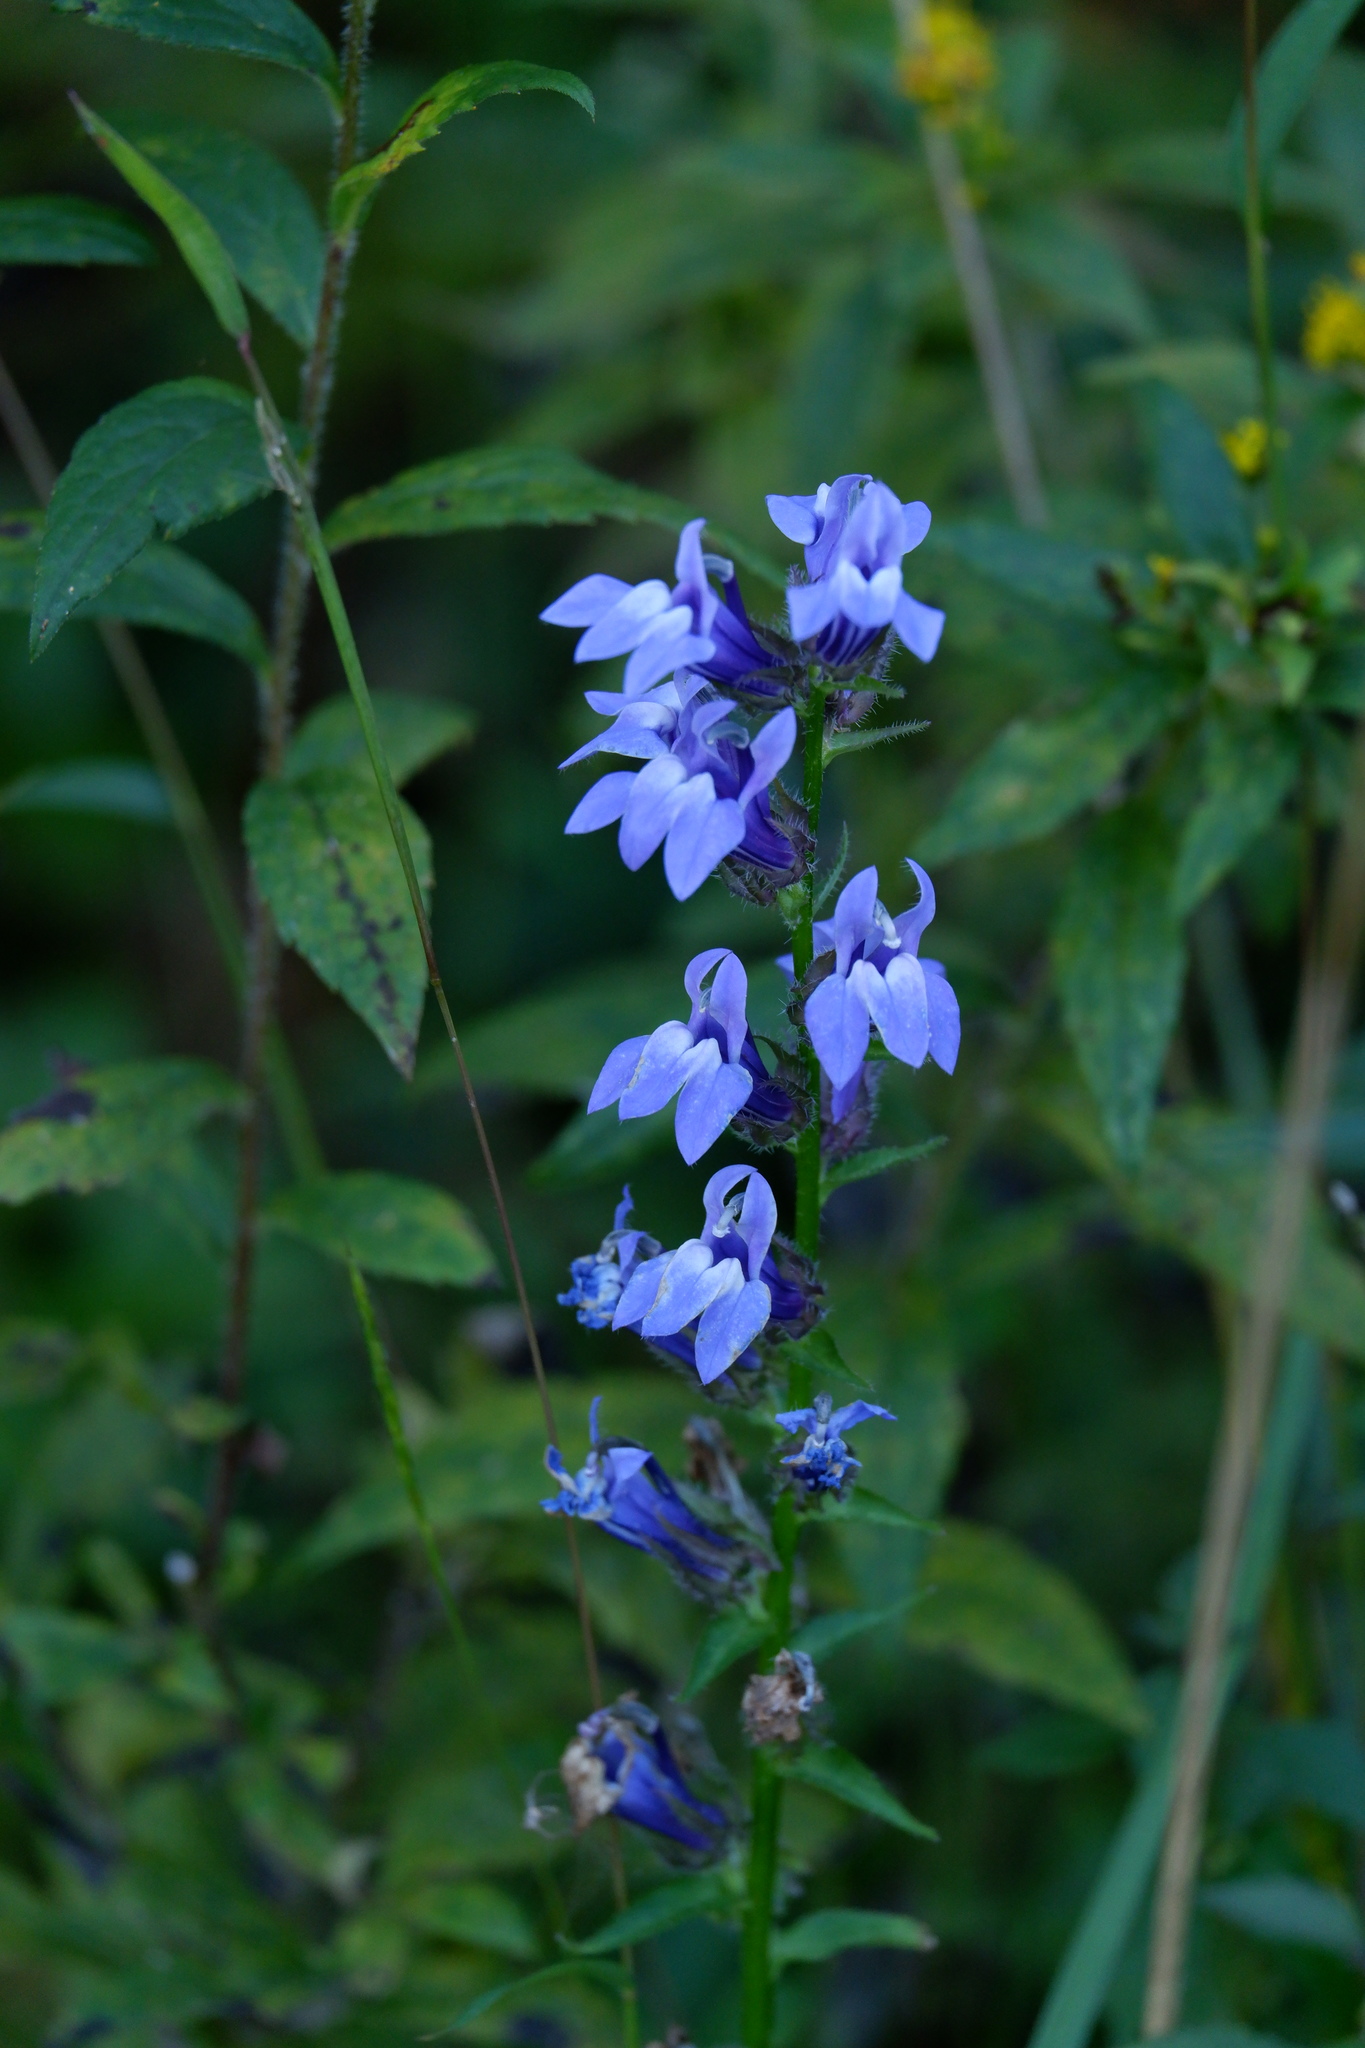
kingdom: Plantae
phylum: Tracheophyta
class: Magnoliopsida
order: Asterales
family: Campanulaceae
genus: Lobelia
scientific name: Lobelia siphilitica
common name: Great lobelia
